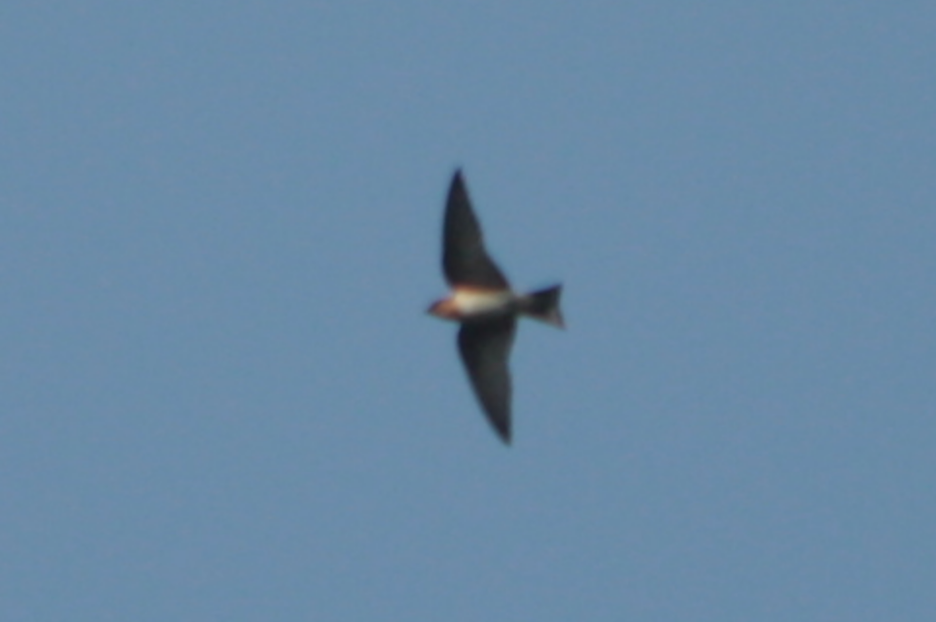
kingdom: Animalia
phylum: Chordata
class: Aves
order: Passeriformes
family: Hirundinidae
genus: Hirundo
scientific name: Hirundo tahitica
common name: Pacific swallow
